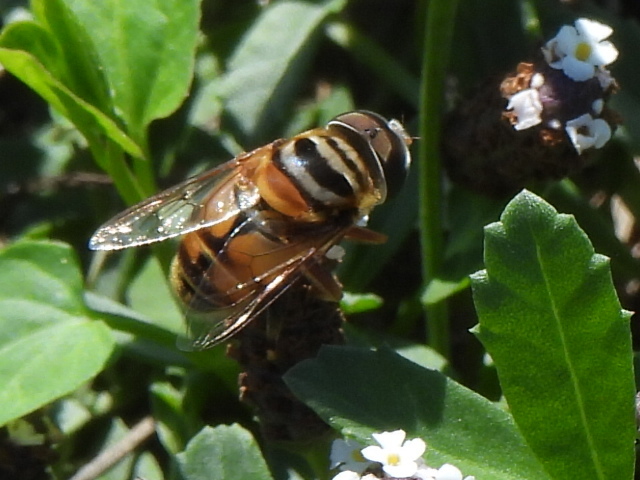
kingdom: Animalia
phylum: Arthropoda
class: Insecta
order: Diptera
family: Syrphidae
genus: Palpada
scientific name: Palpada vinetorum
